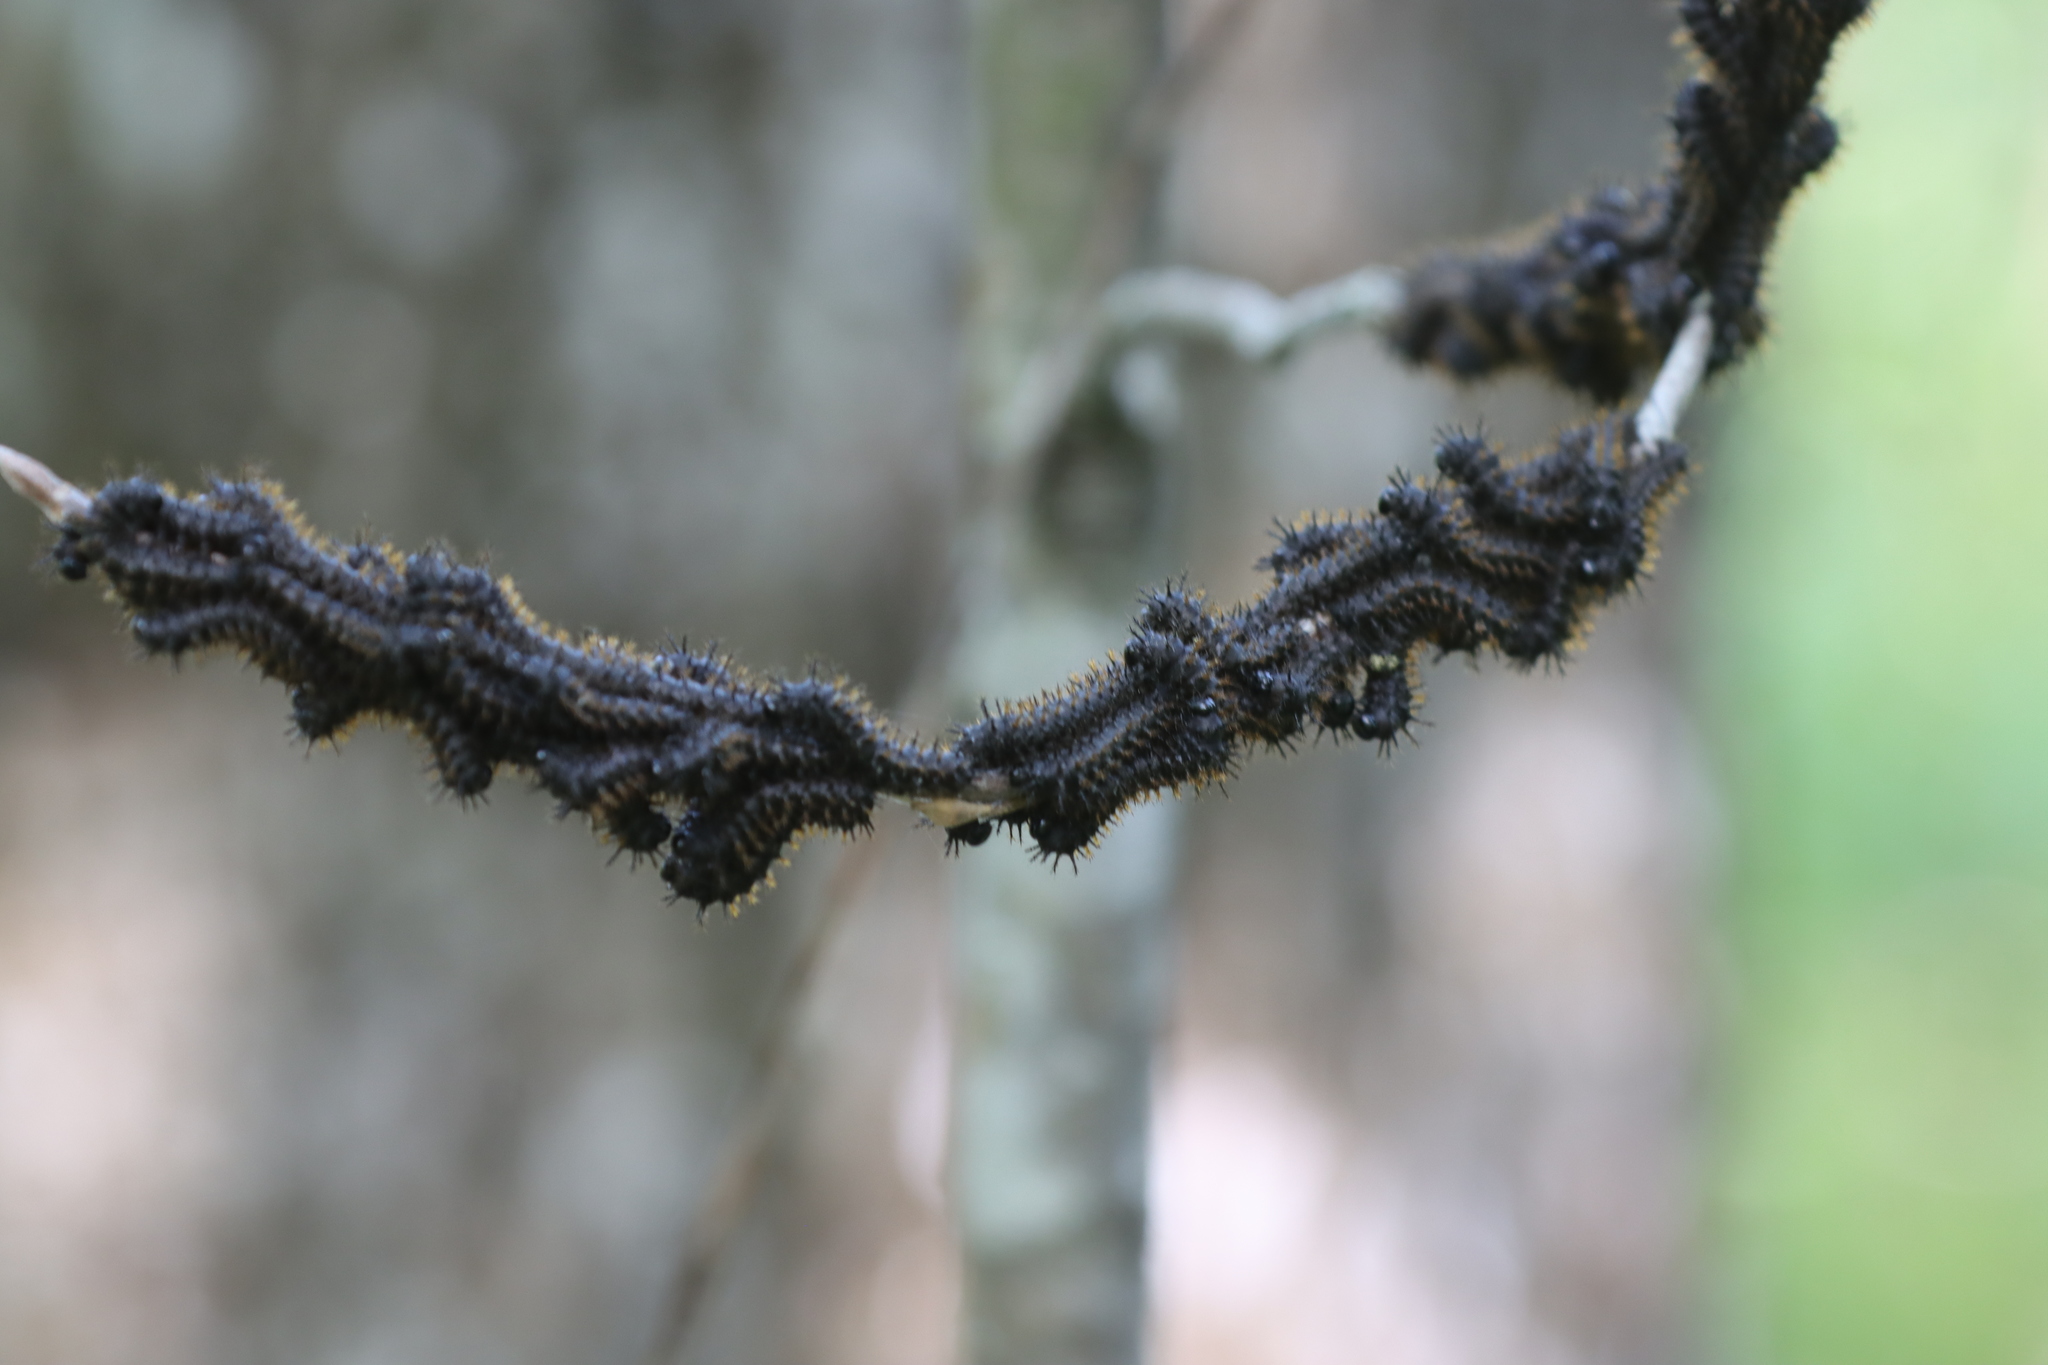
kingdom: Animalia
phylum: Arthropoda
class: Insecta
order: Lepidoptera
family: Saturniidae
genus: Hemileuca
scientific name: Hemileuca maia
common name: Eastern buckmoth
